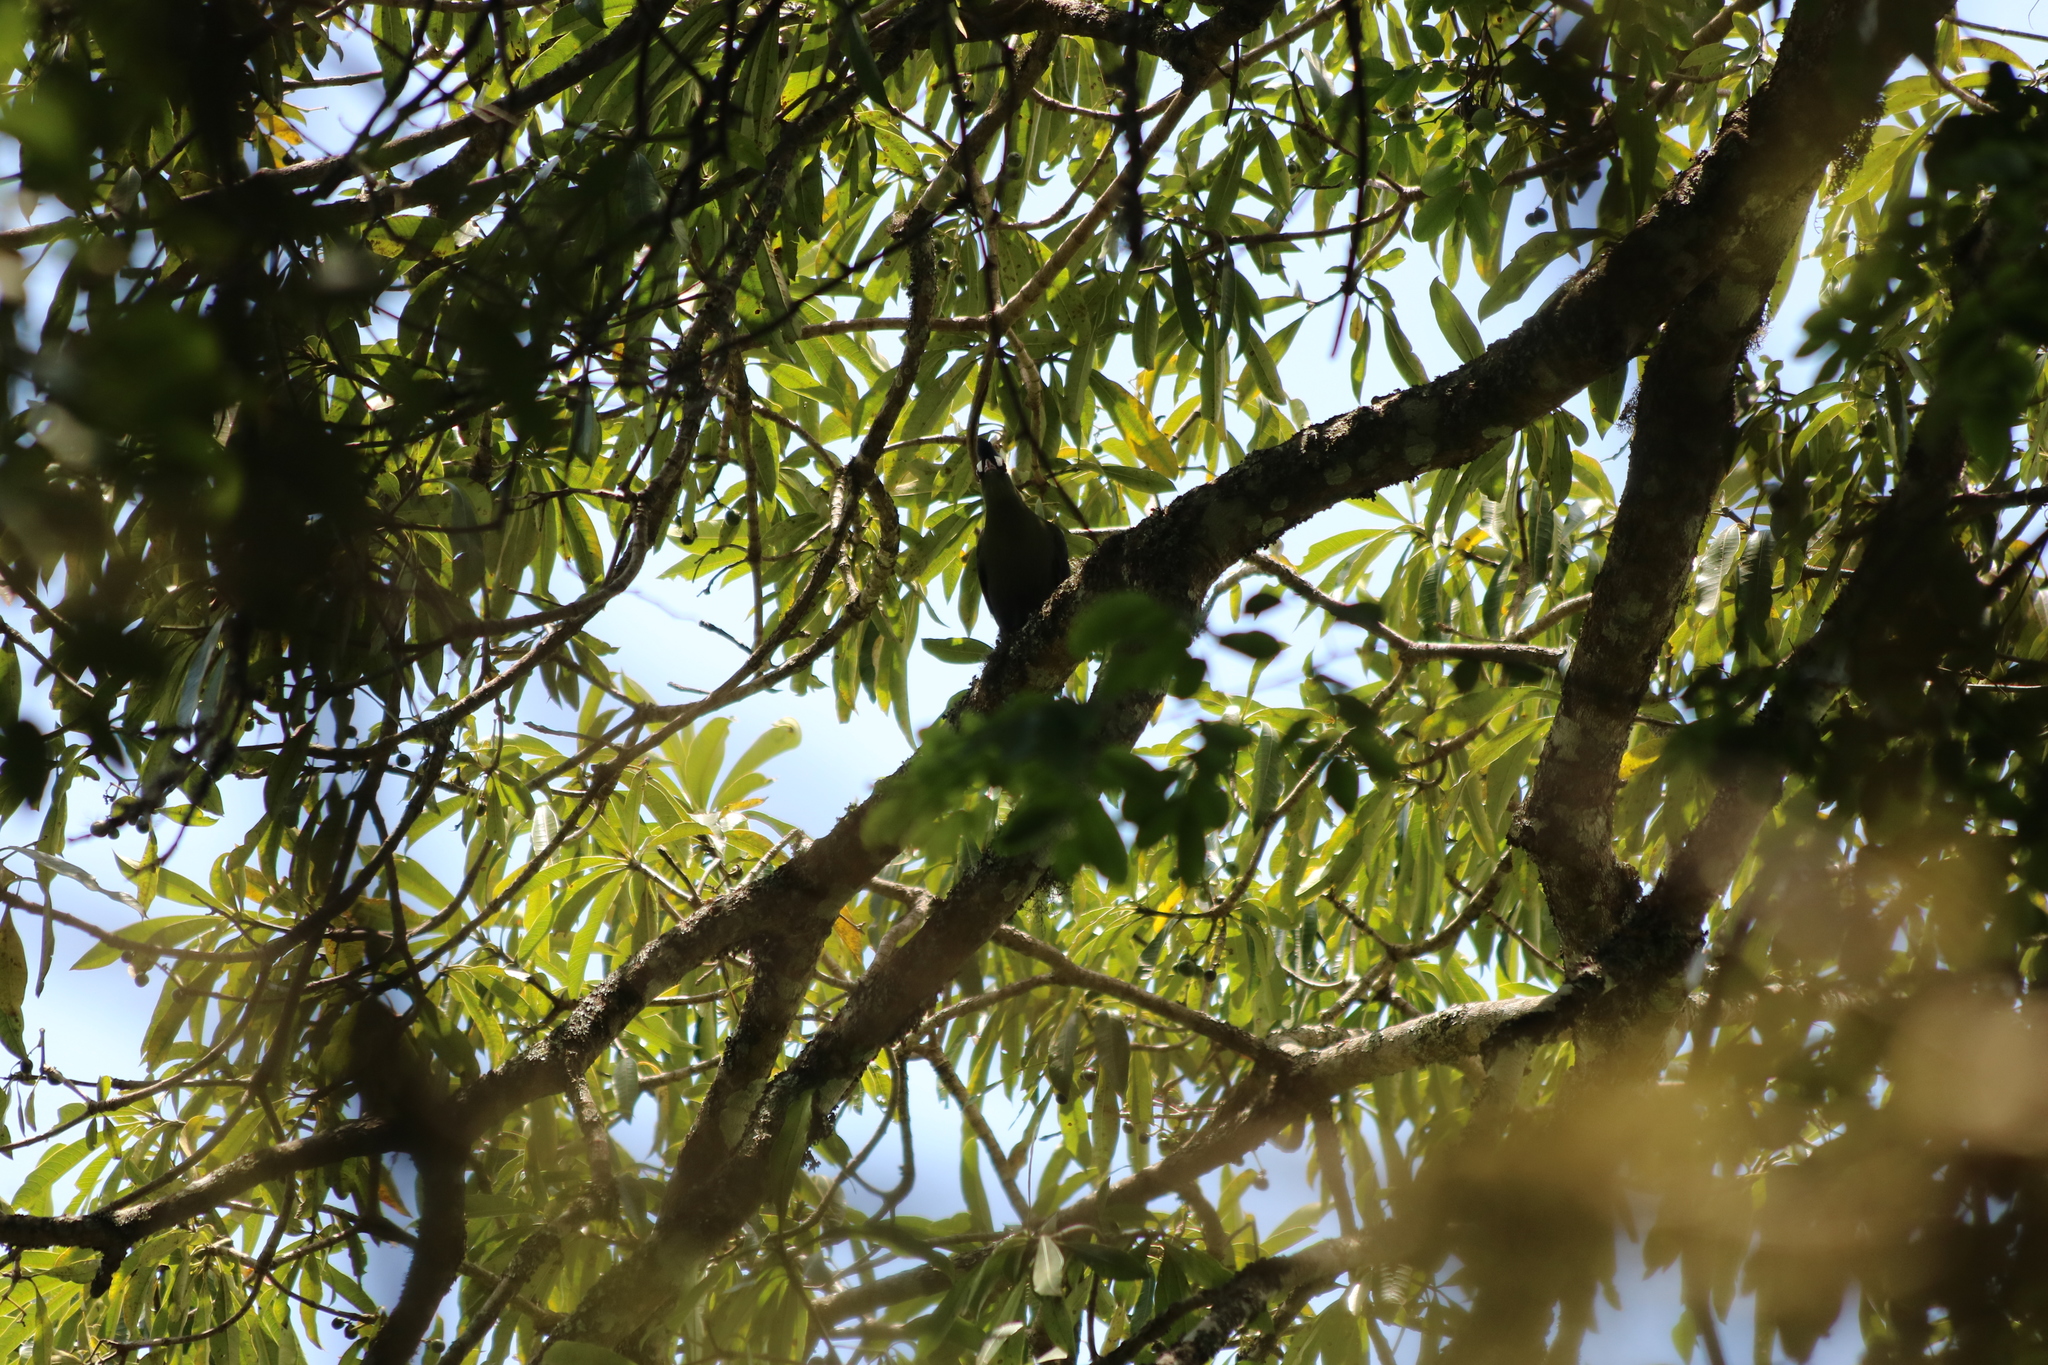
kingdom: Animalia
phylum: Chordata
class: Aves
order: Musophagiformes
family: Musophagidae
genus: Tauraco
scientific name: Tauraco hartlaubi
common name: Hartlaub's turaco
